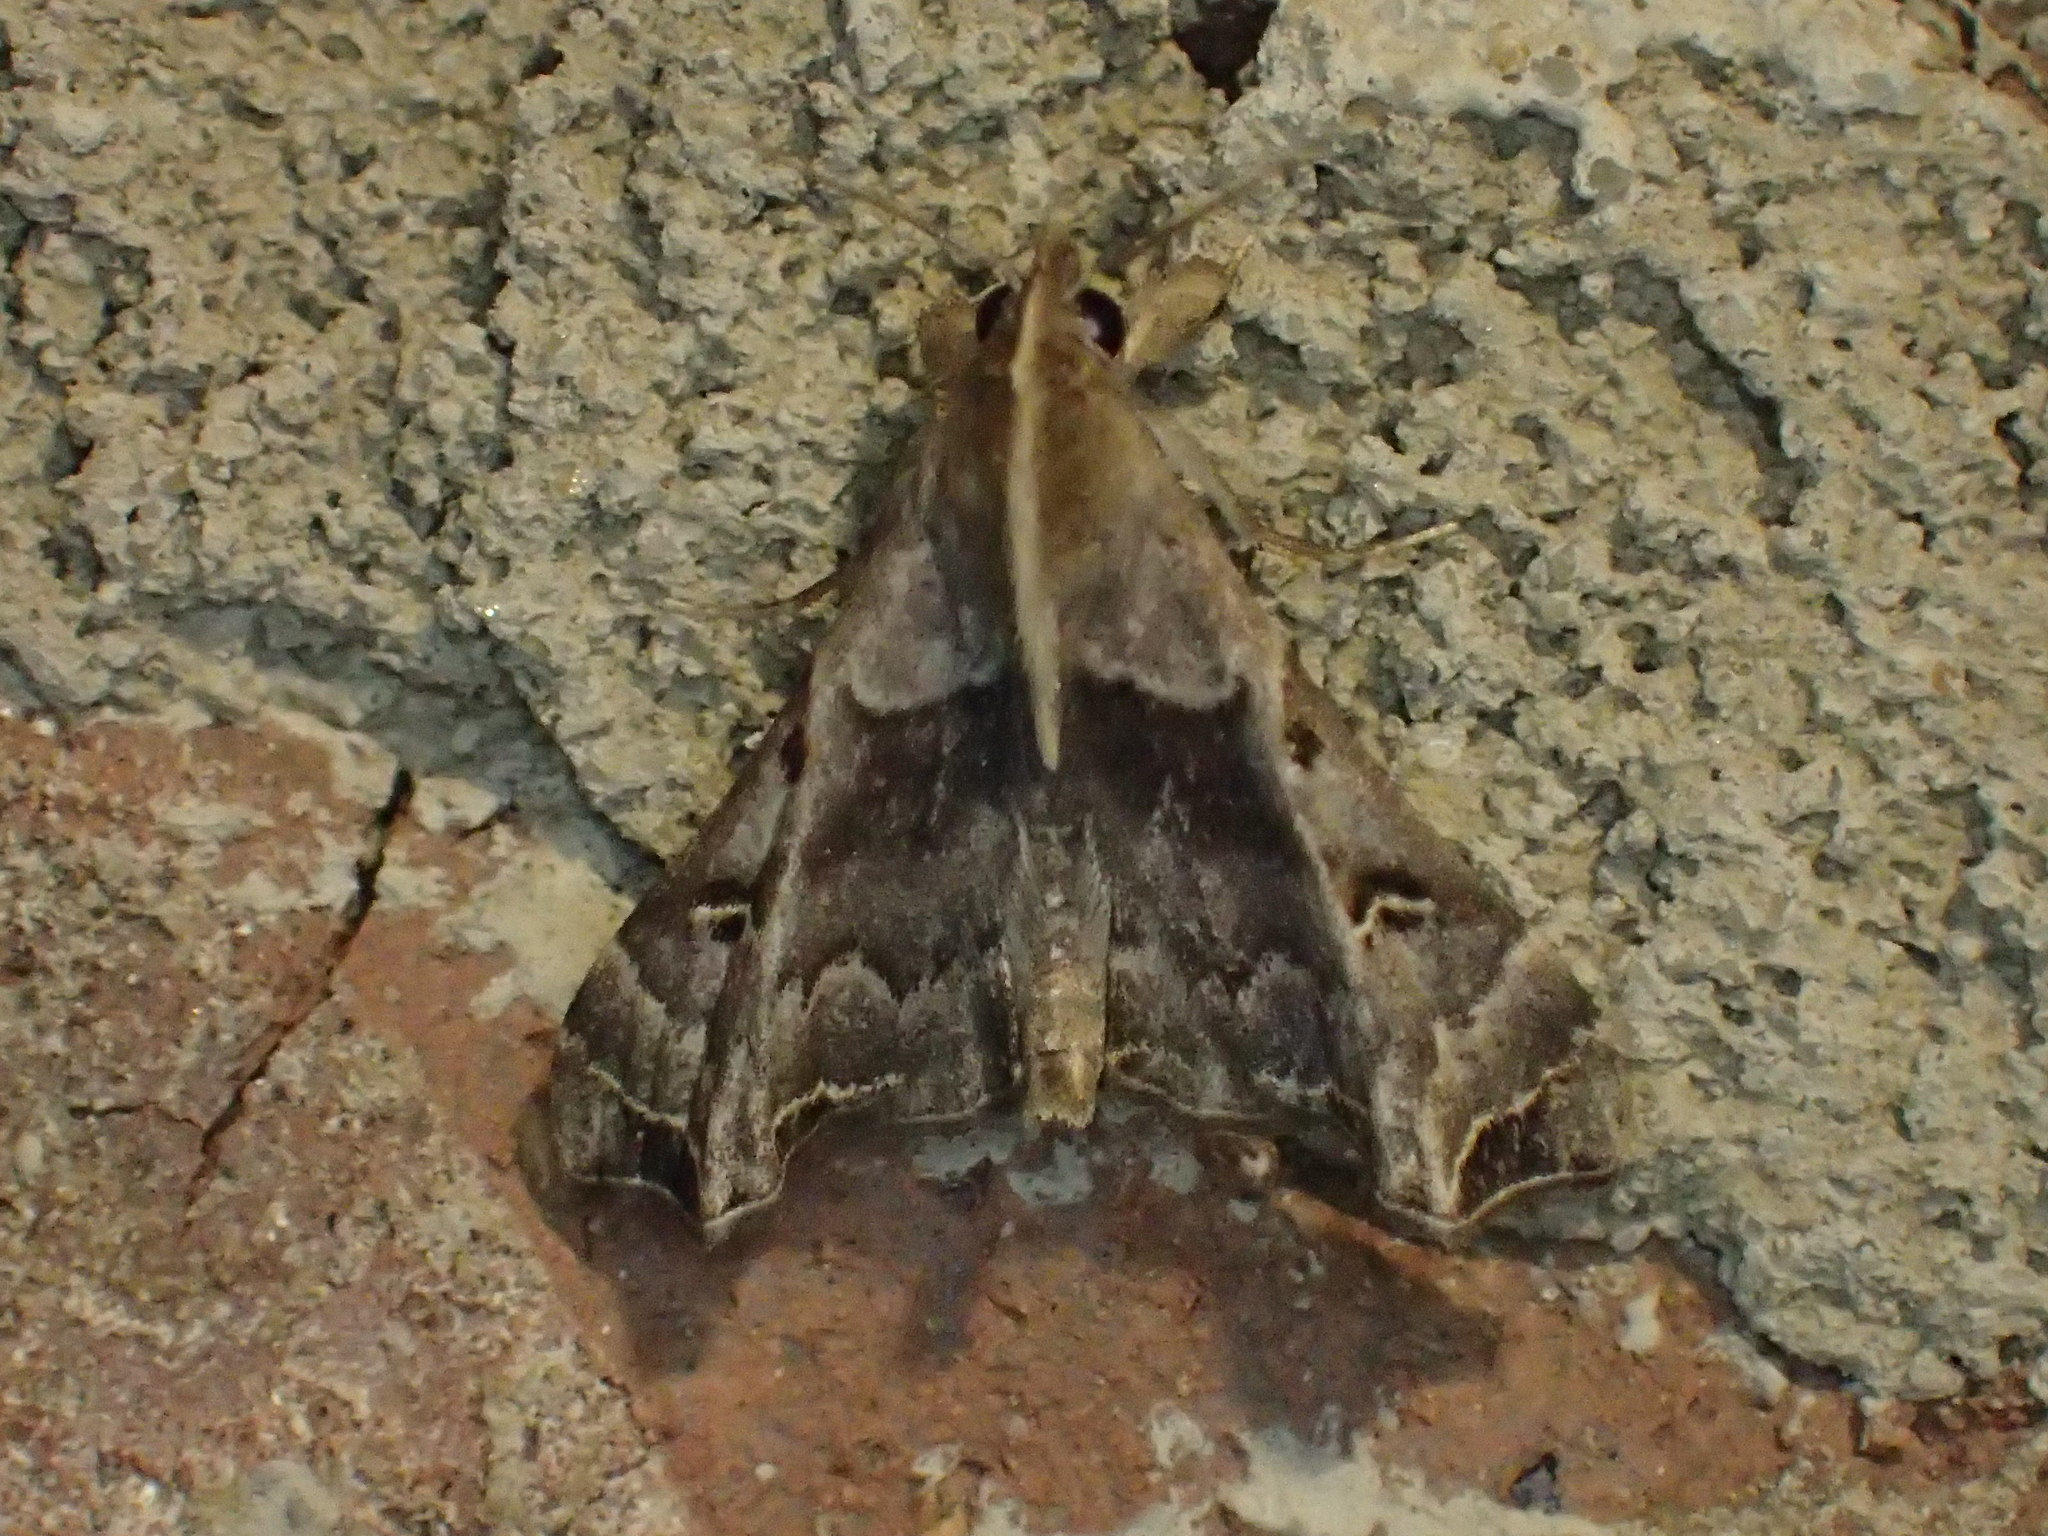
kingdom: Animalia
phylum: Arthropoda
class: Insecta
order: Lepidoptera
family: Erebidae
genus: Palthis
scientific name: Palthis asopialis
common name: Faint-spotted palthis moth
